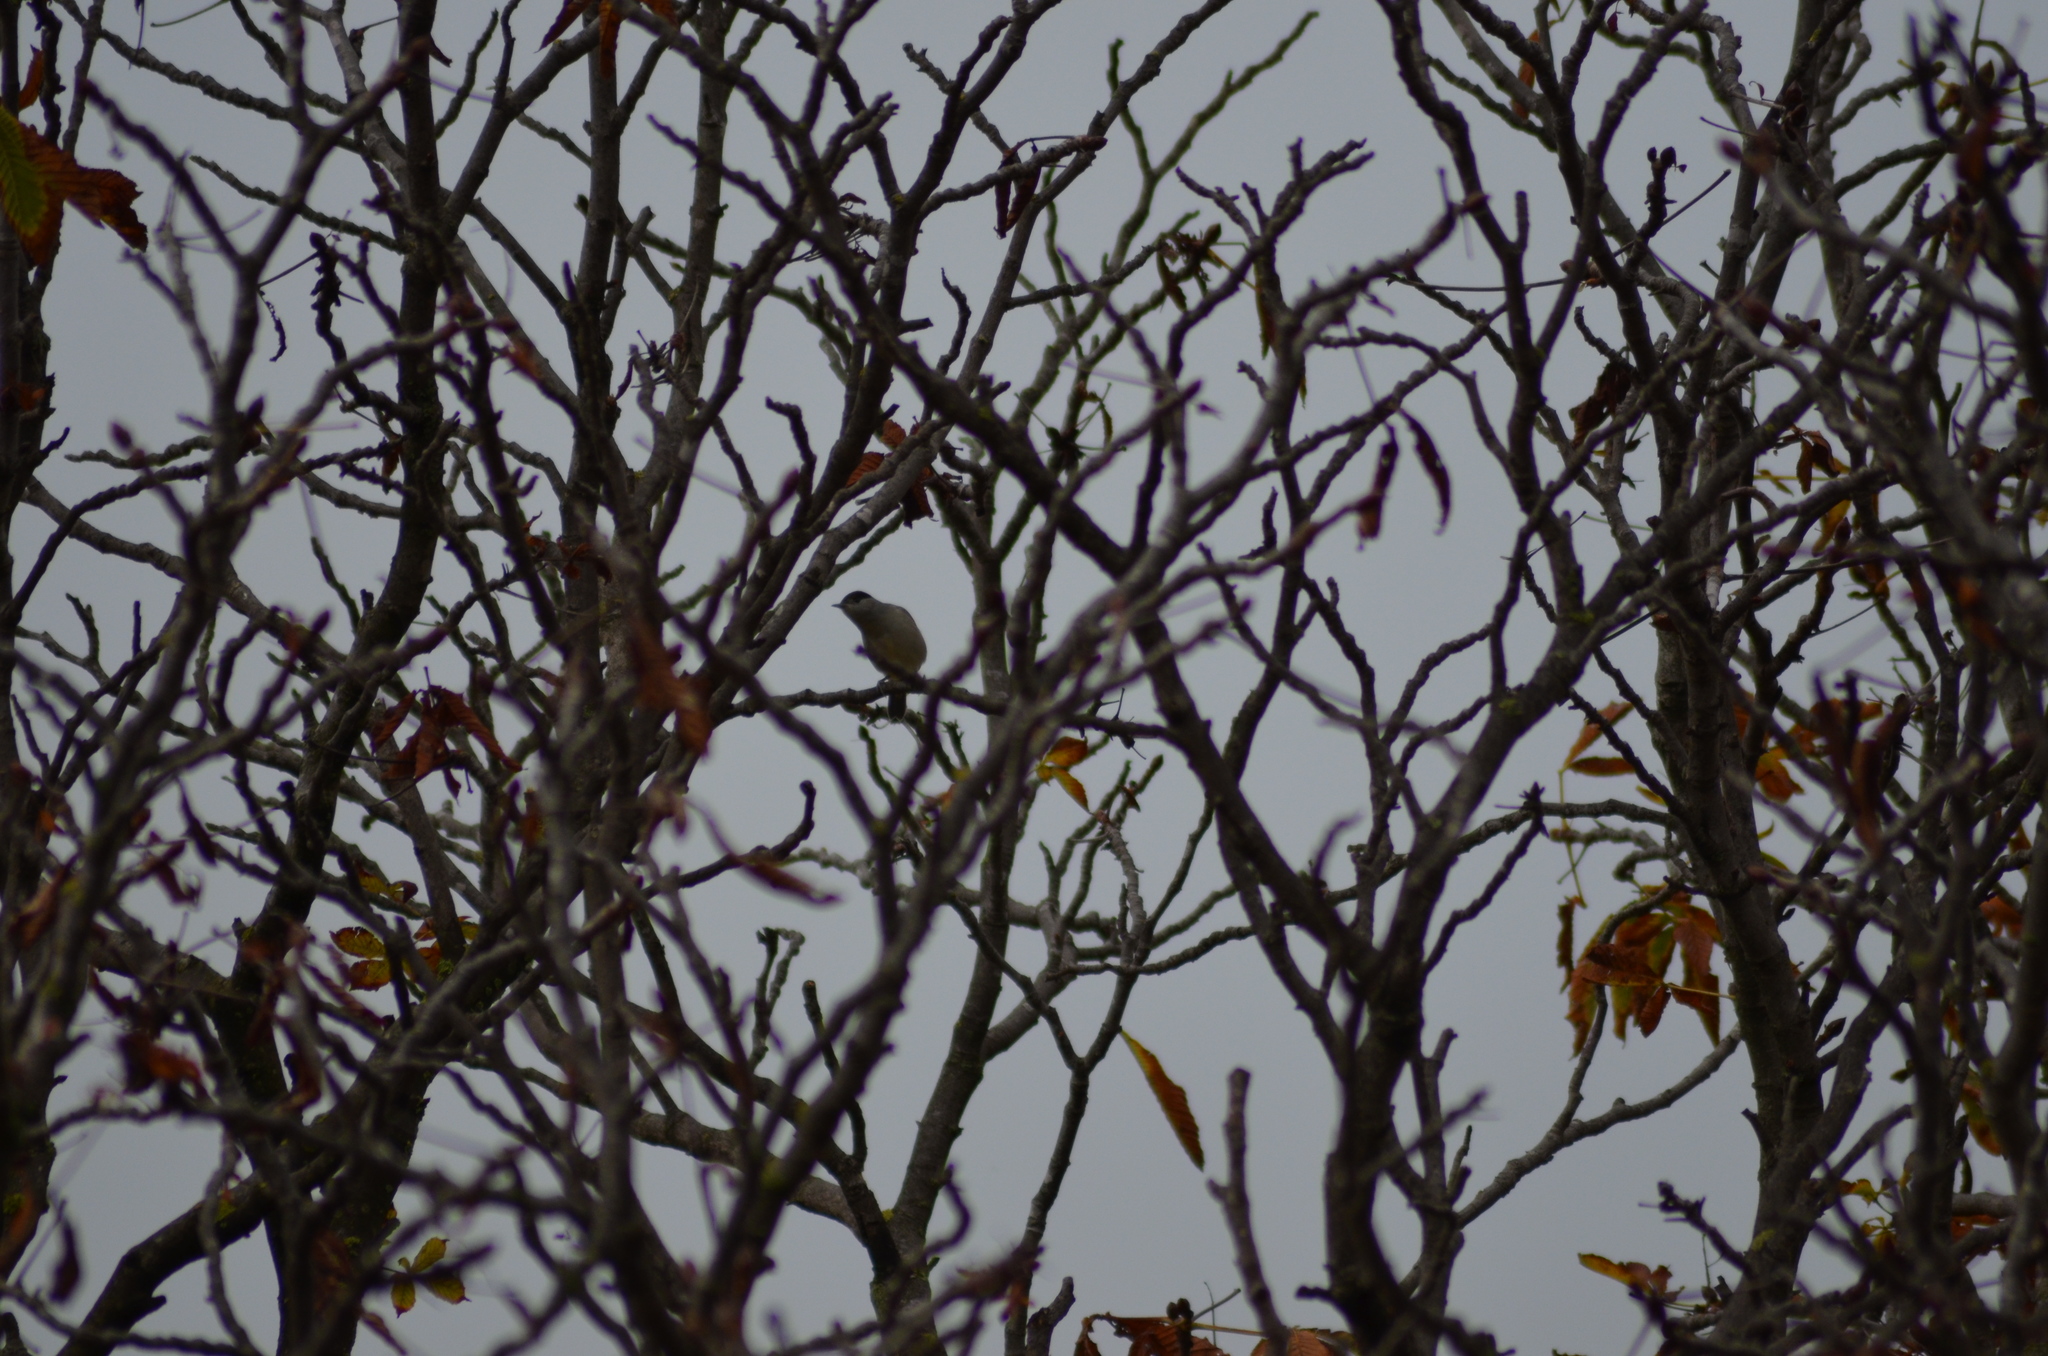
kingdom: Animalia
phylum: Chordata
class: Aves
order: Passeriformes
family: Sylviidae
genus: Sylvia
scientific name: Sylvia atricapilla
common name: Eurasian blackcap
